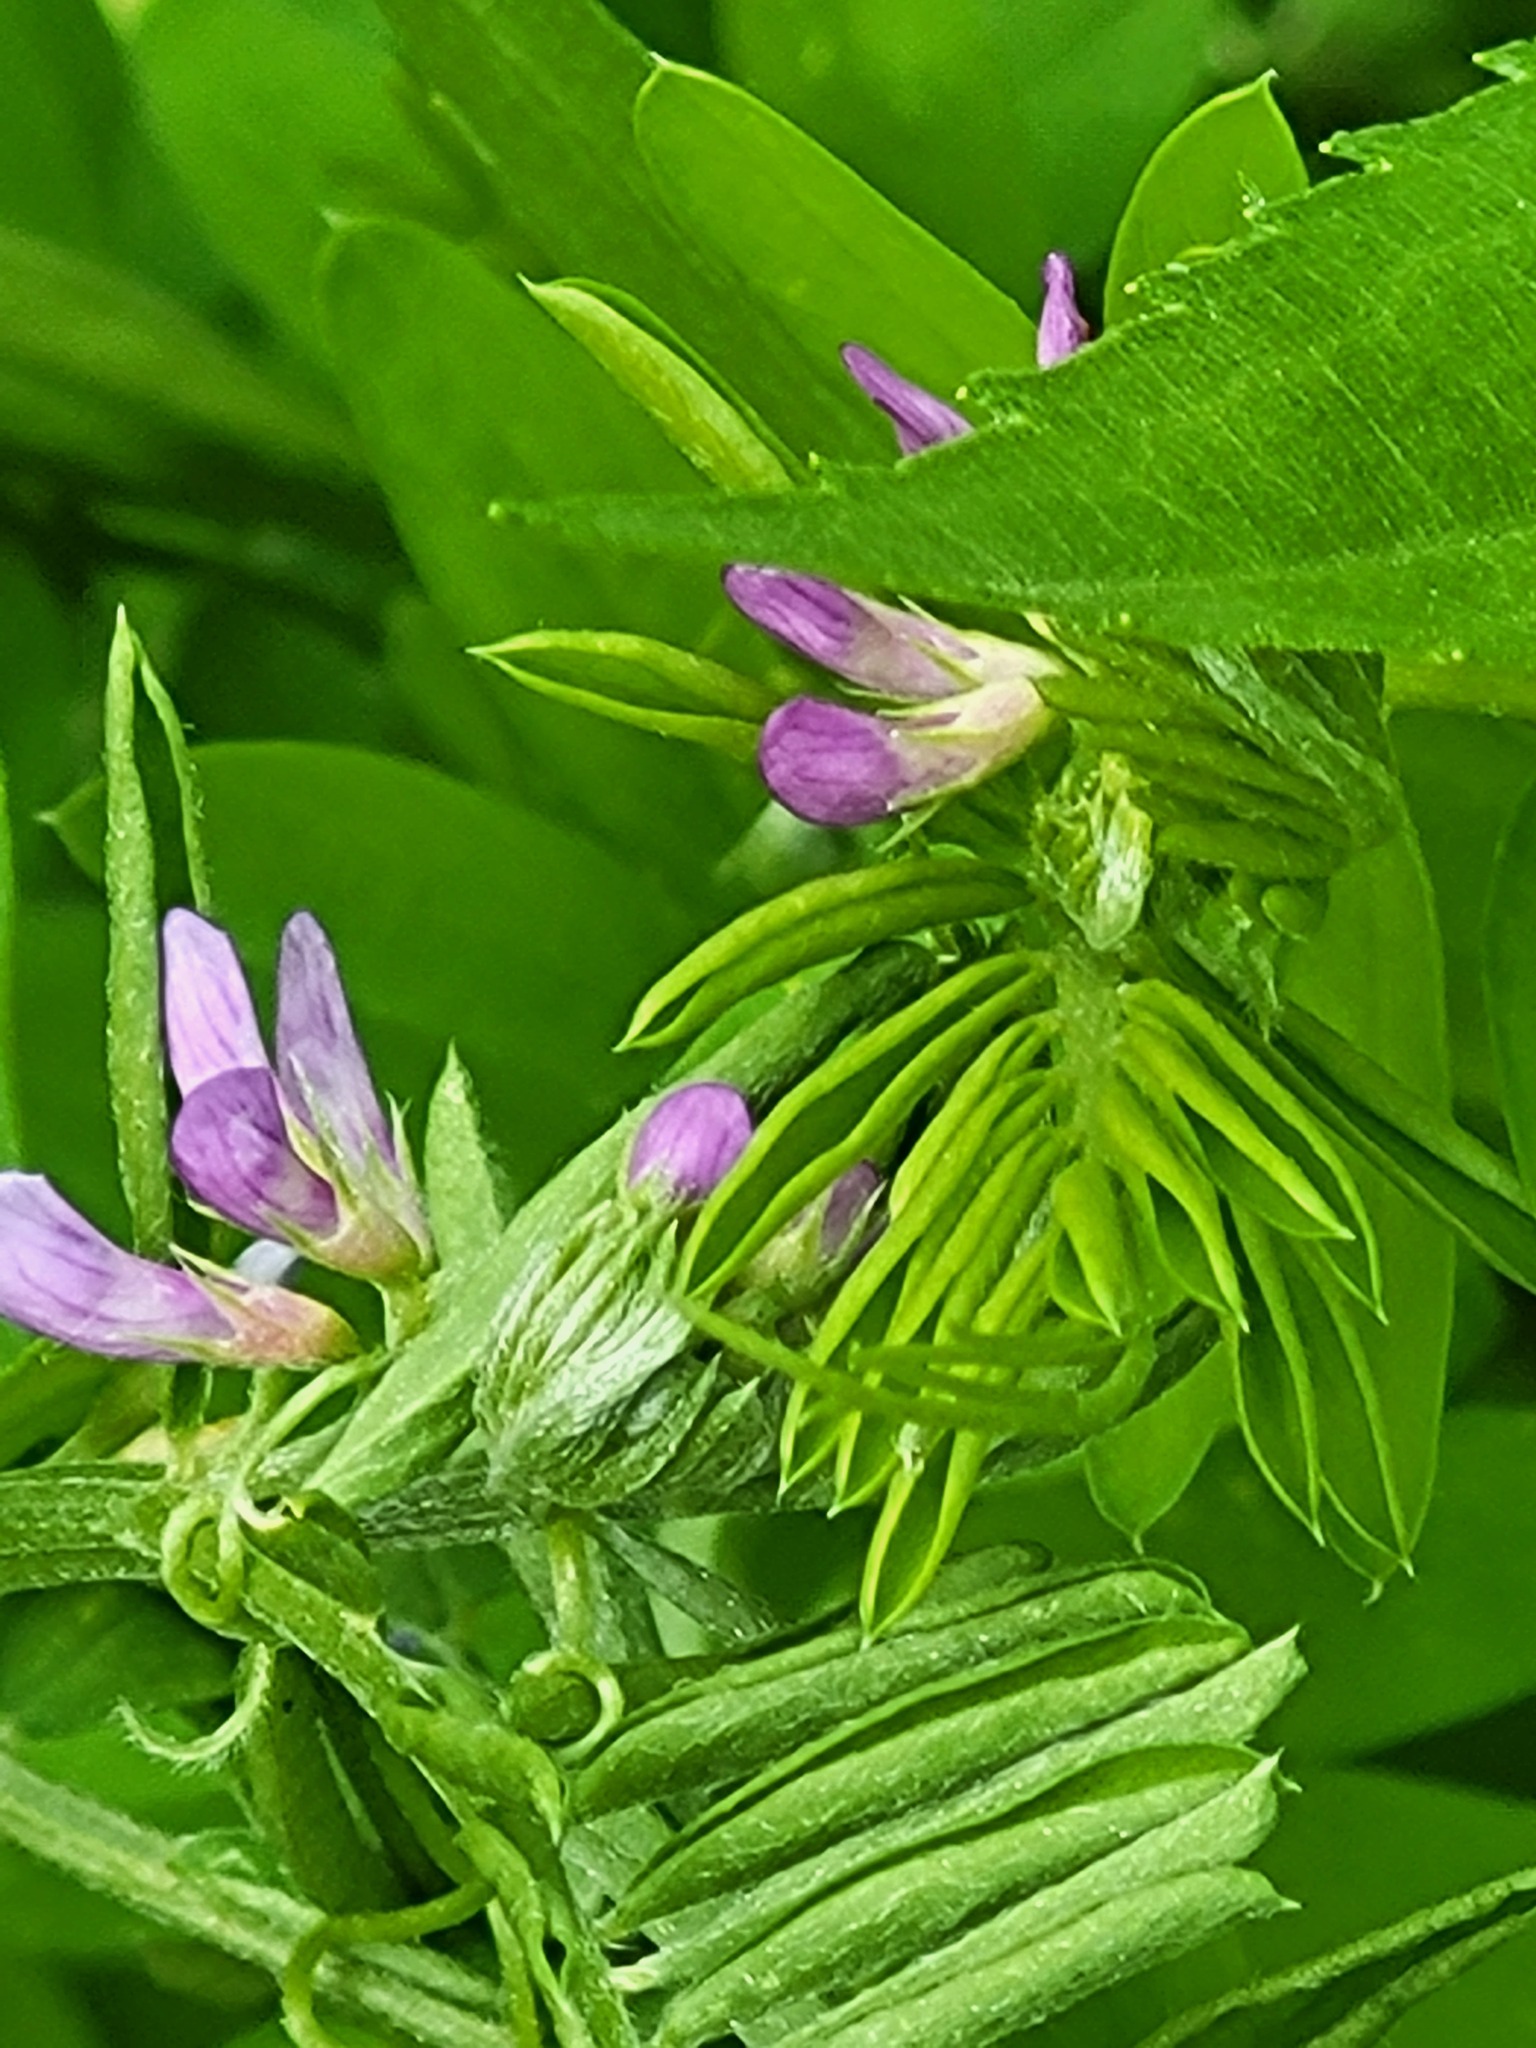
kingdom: Plantae
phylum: Tracheophyta
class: Magnoliopsida
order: Fabales
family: Fabaceae
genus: Vicia
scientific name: Vicia ludoviciana
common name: Louisiana vetch
